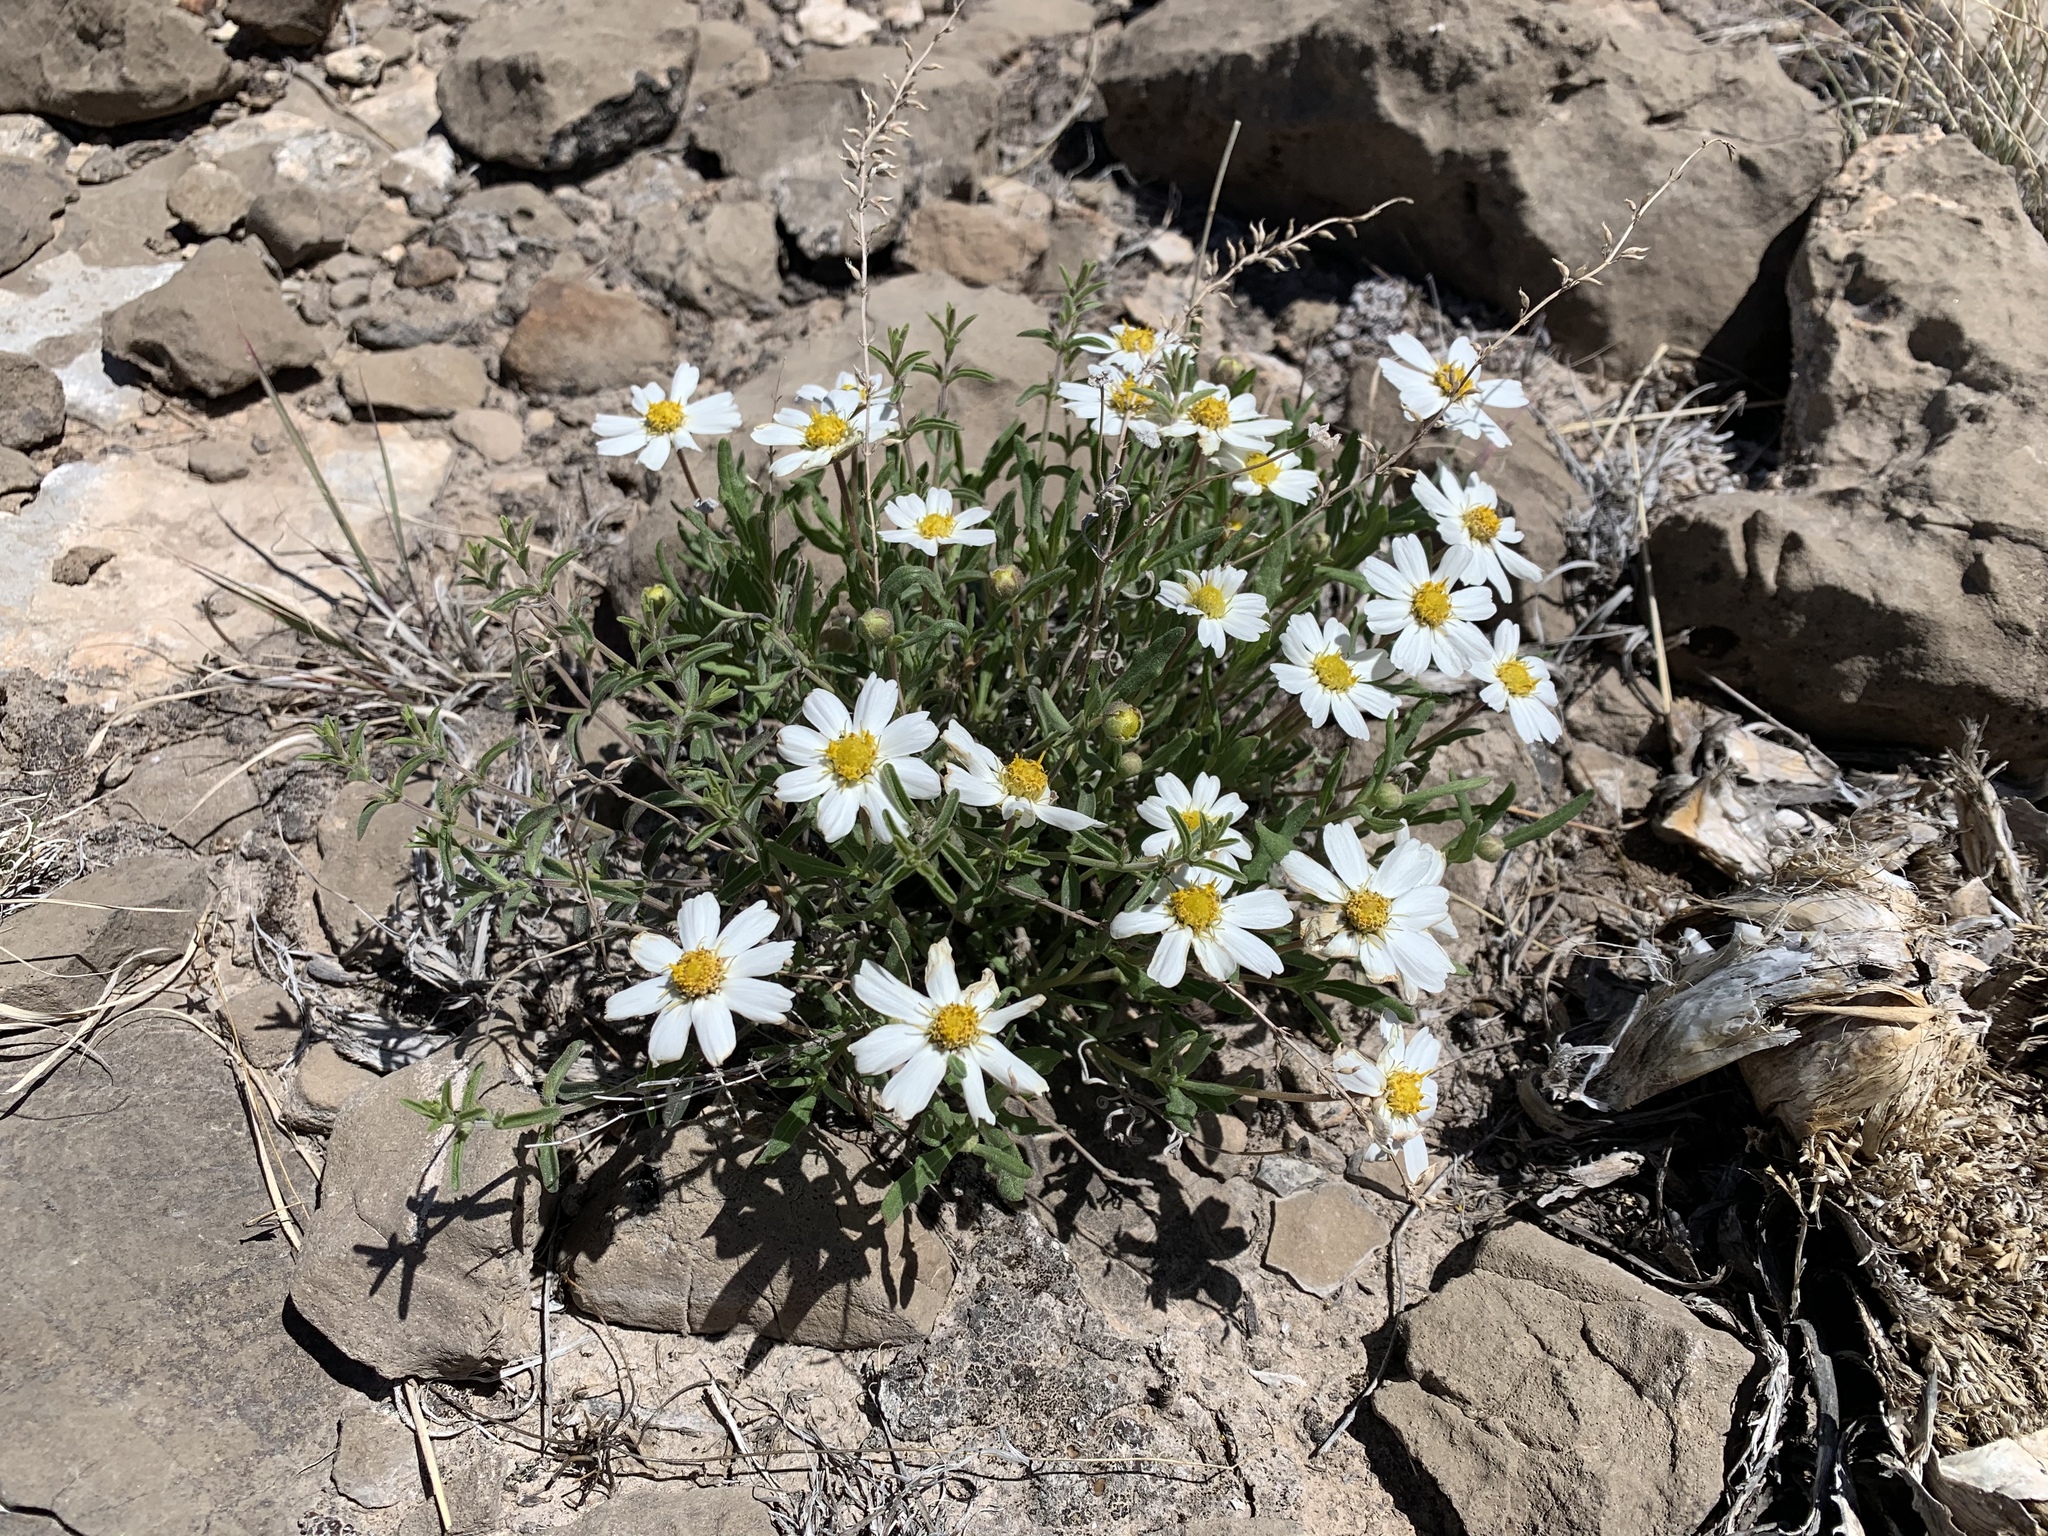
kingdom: Plantae
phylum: Tracheophyta
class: Magnoliopsida
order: Asterales
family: Asteraceae
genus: Melampodium
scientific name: Melampodium leucanthum
